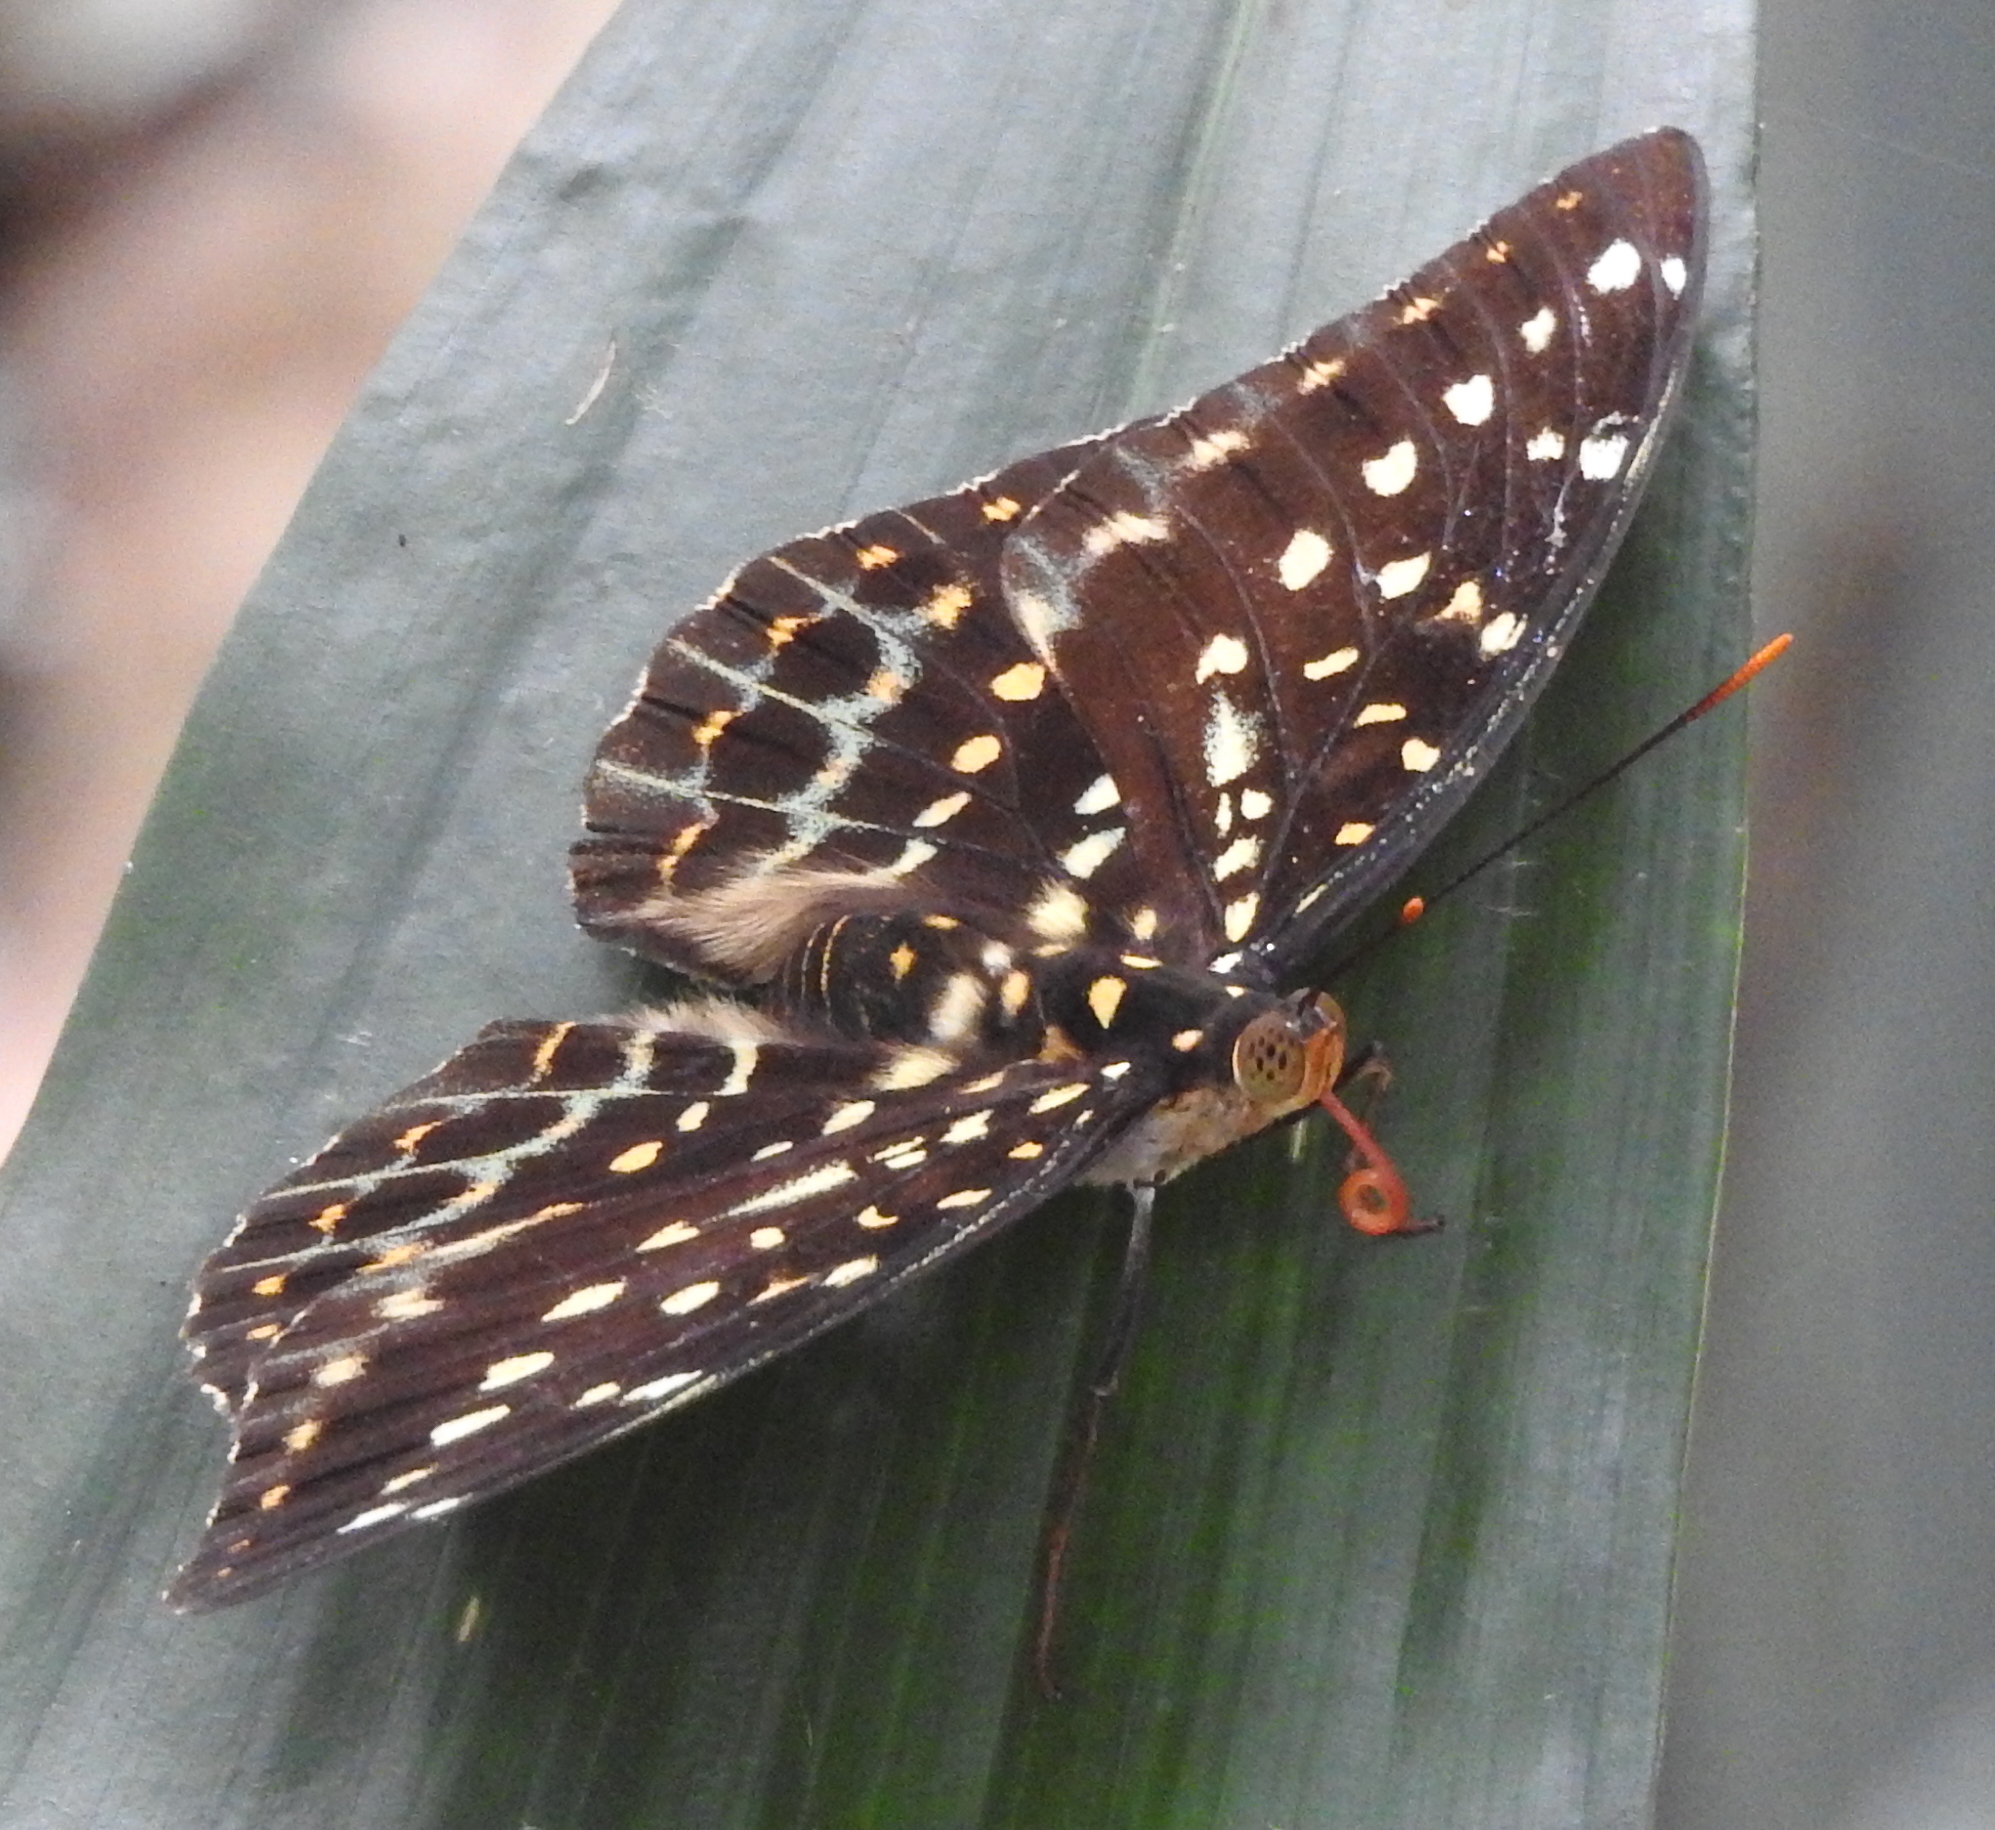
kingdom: Animalia
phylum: Arthropoda
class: Insecta
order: Lepidoptera
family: Nymphalidae
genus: Lexias
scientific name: Lexias pardalis
